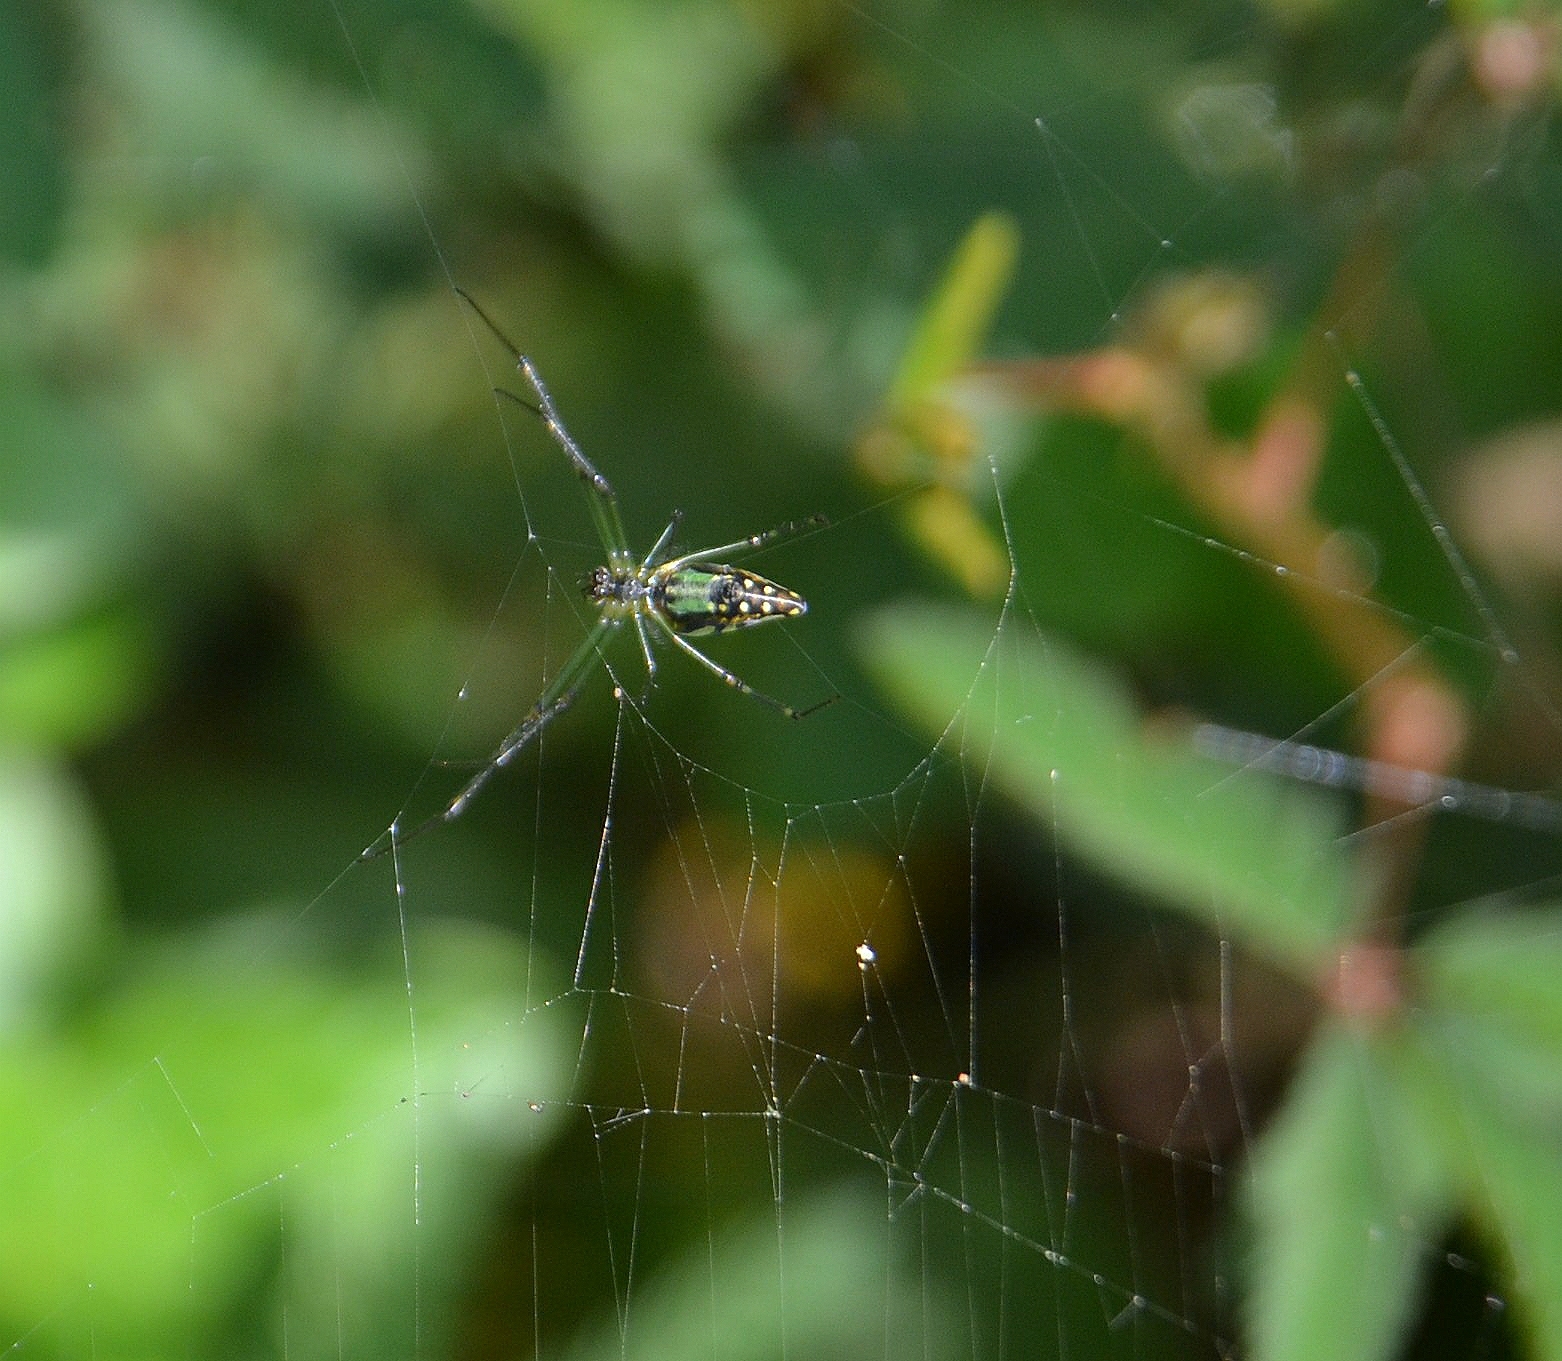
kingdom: Animalia
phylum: Arthropoda
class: Arachnida
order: Araneae
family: Tetragnathidae
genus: Leucauge
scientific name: Leucauge decorata
